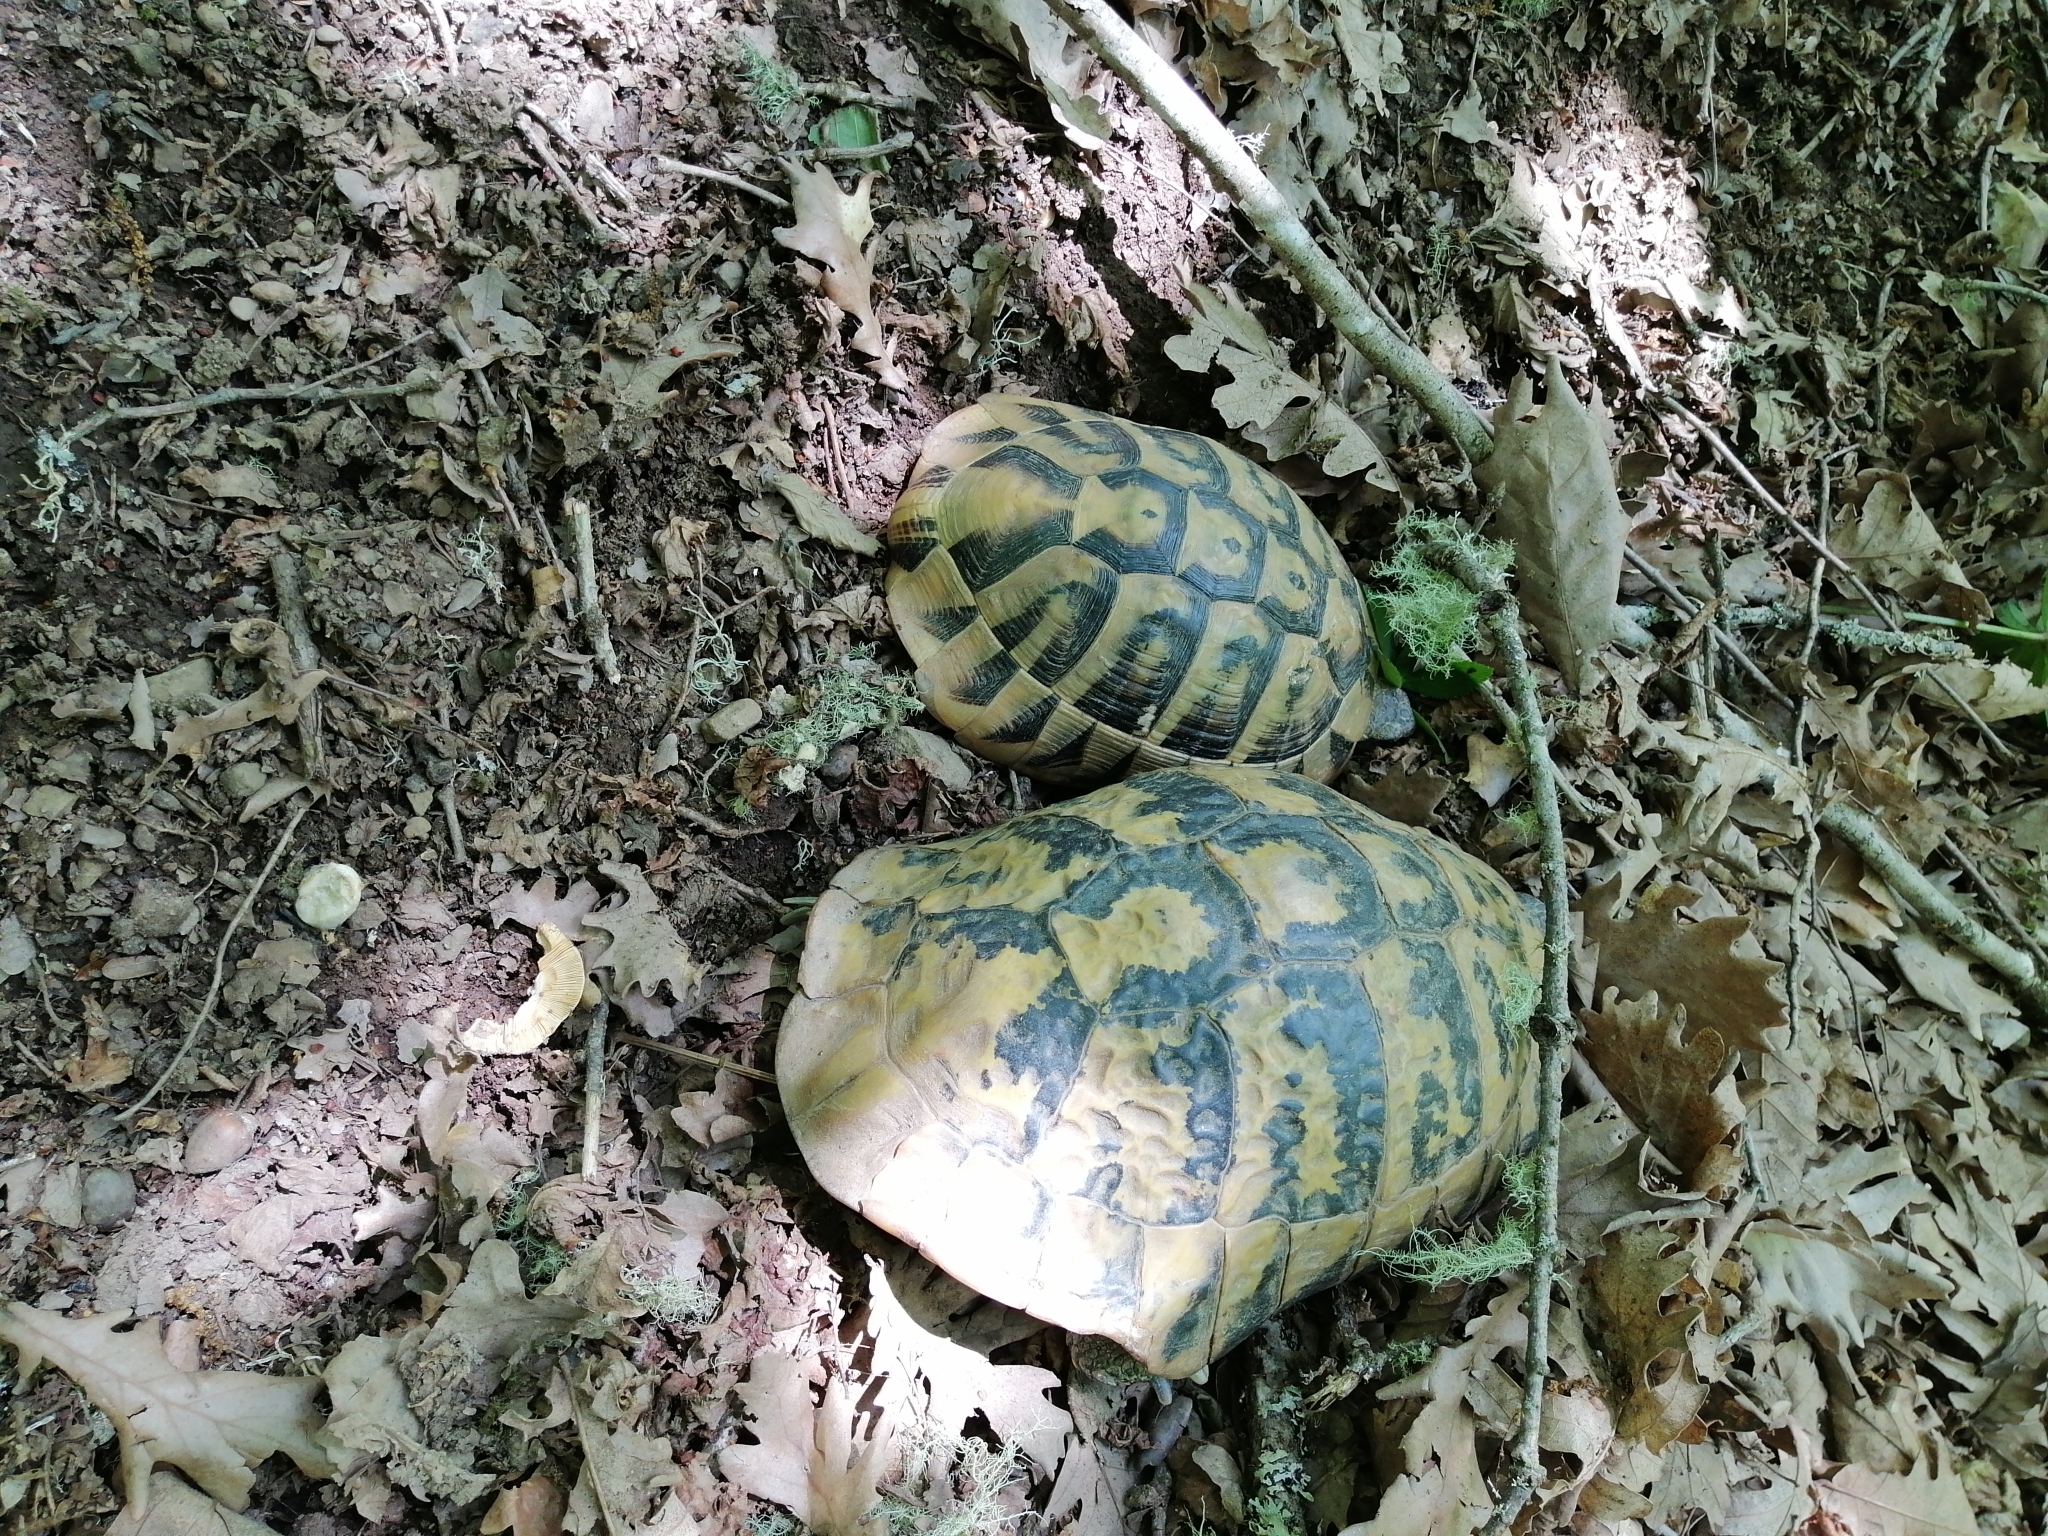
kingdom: Animalia
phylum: Chordata
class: Testudines
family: Testudinidae
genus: Testudo
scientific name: Testudo hermanni
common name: Hermann's tortoise
